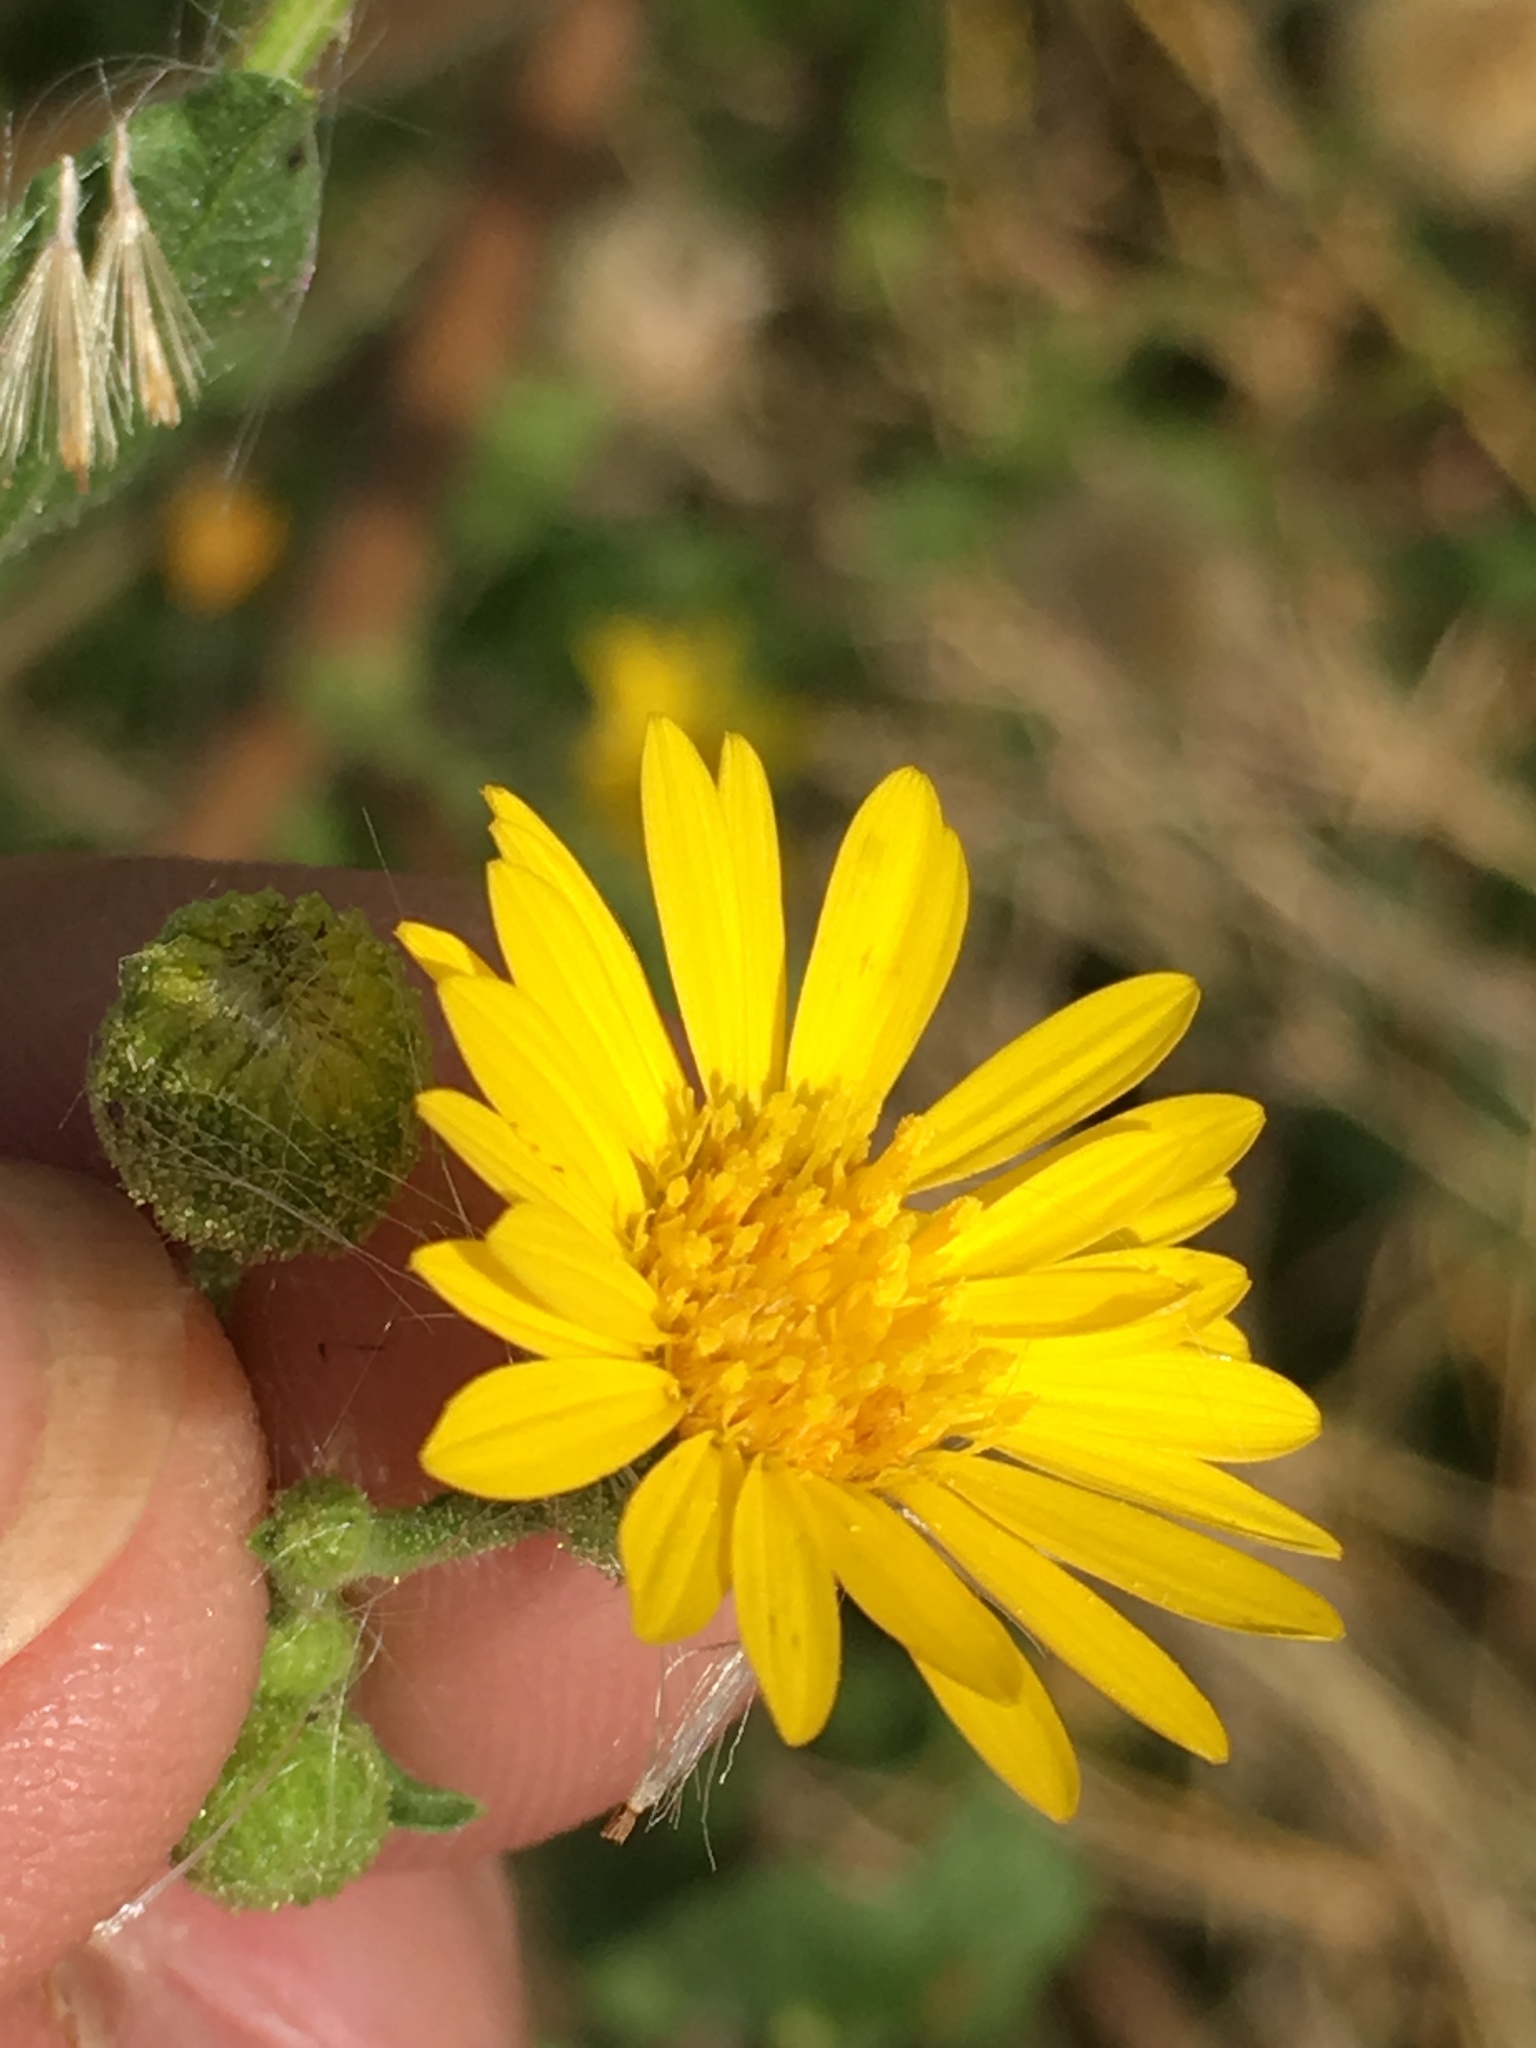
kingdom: Plantae
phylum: Tracheophyta
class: Magnoliopsida
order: Asterales
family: Asteraceae
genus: Heterotheca
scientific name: Heterotheca subaxillaris
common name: Camphorweed
